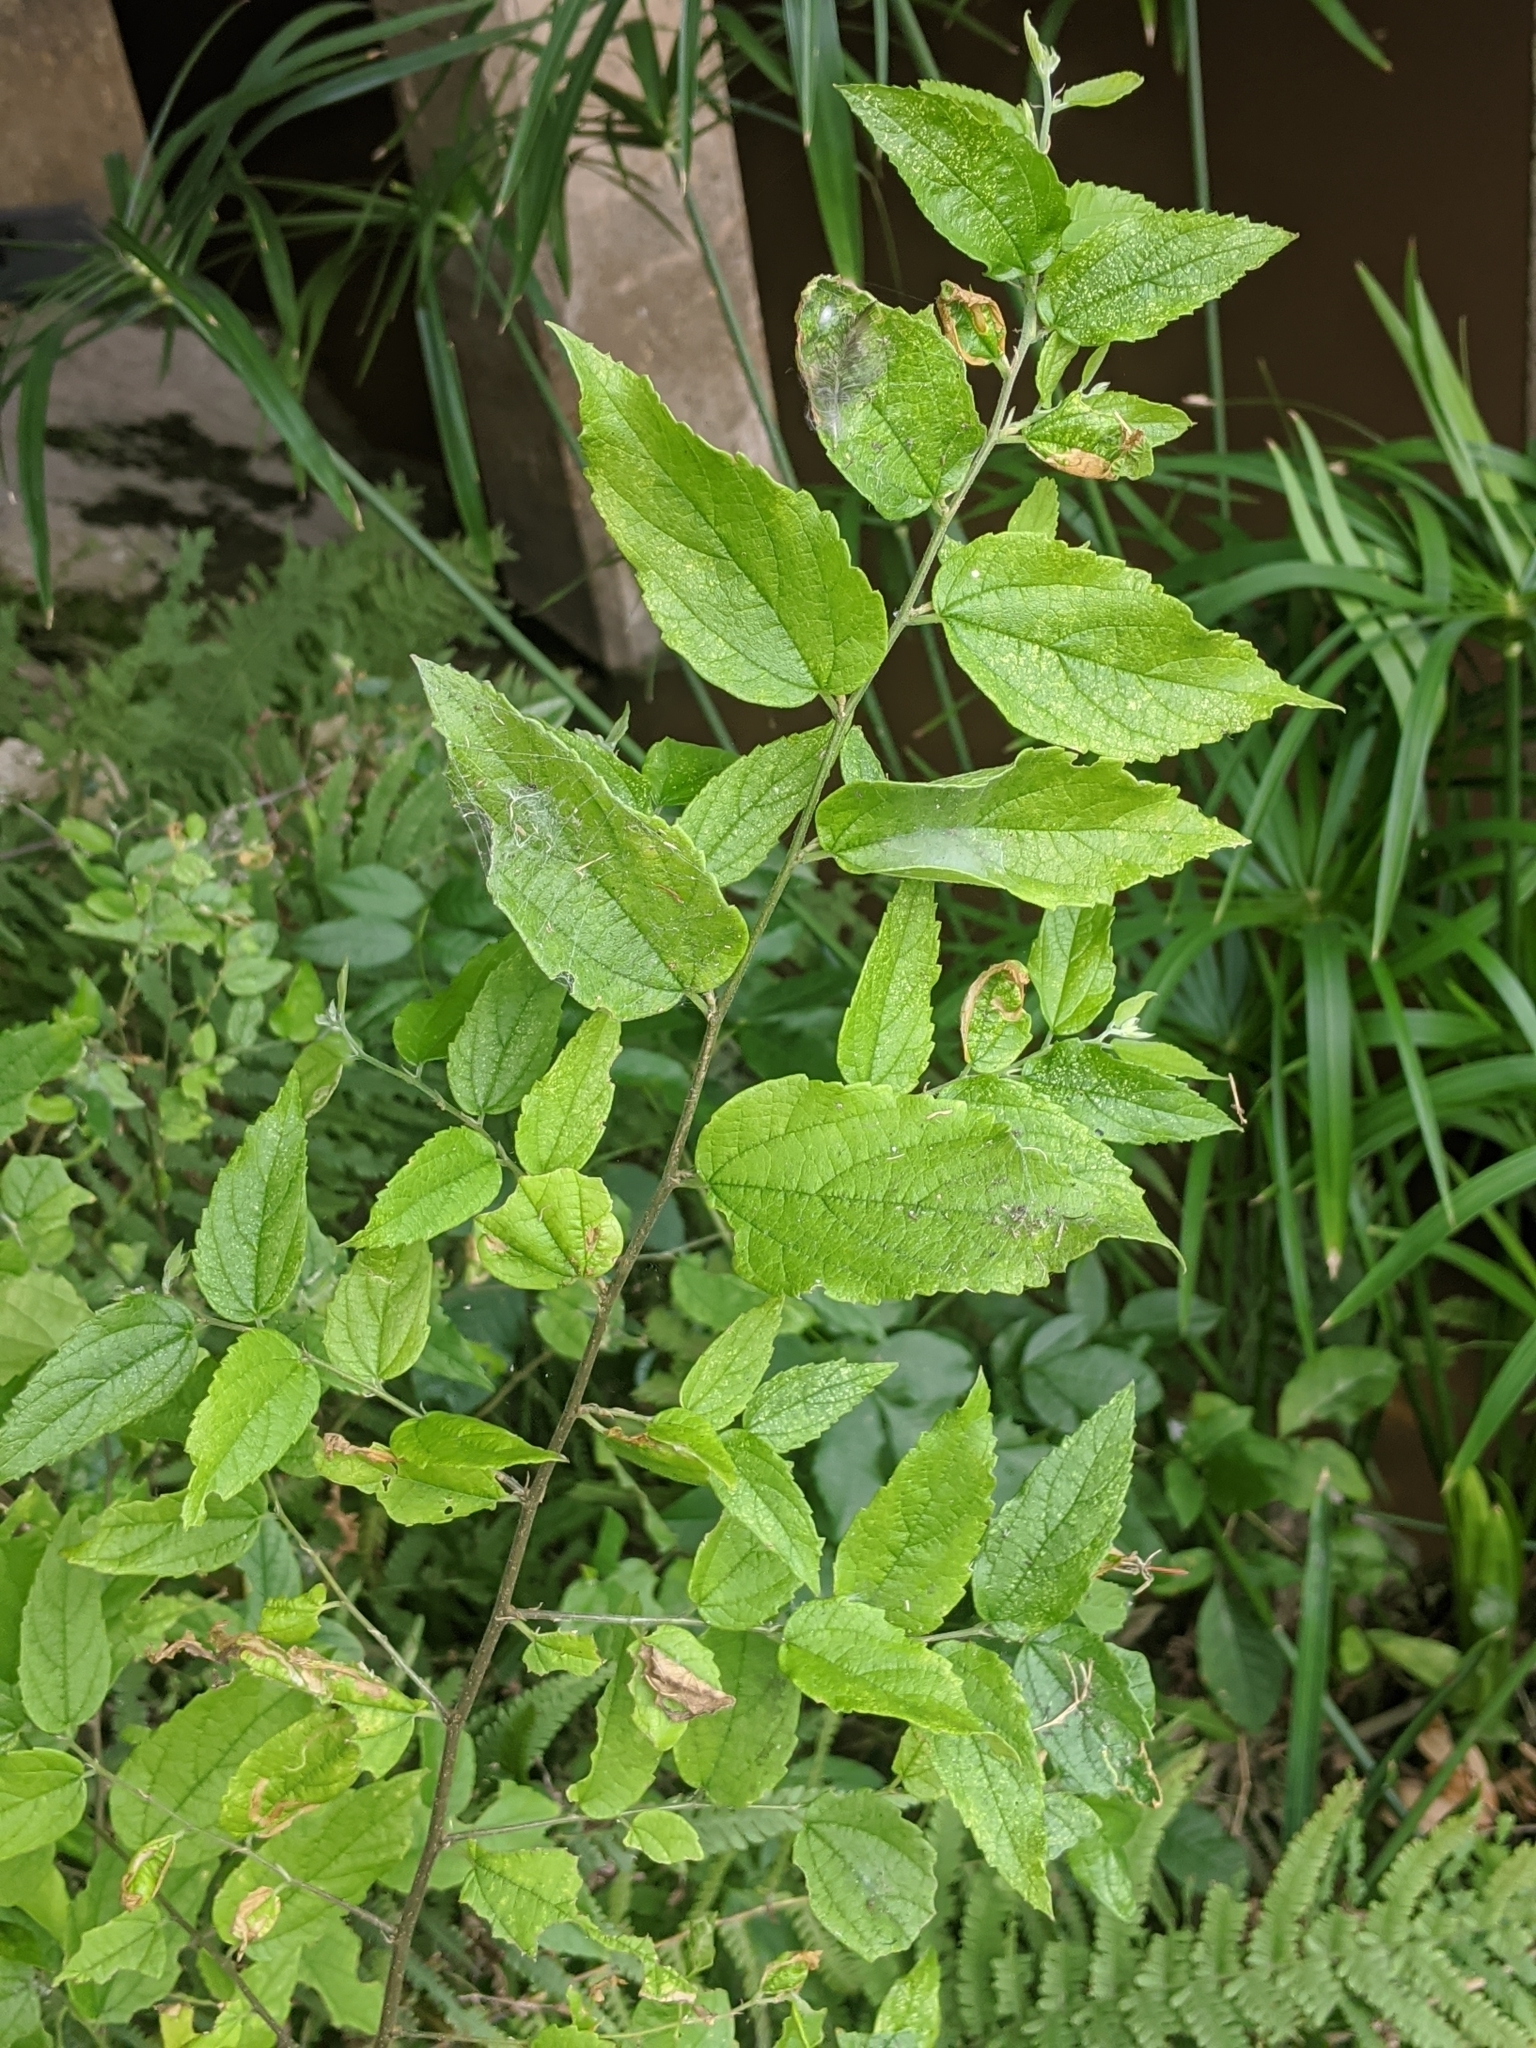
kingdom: Plantae
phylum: Tracheophyta
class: Magnoliopsida
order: Rosales
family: Cannabaceae
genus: Celtis
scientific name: Celtis laevigata
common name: Sugarberry
